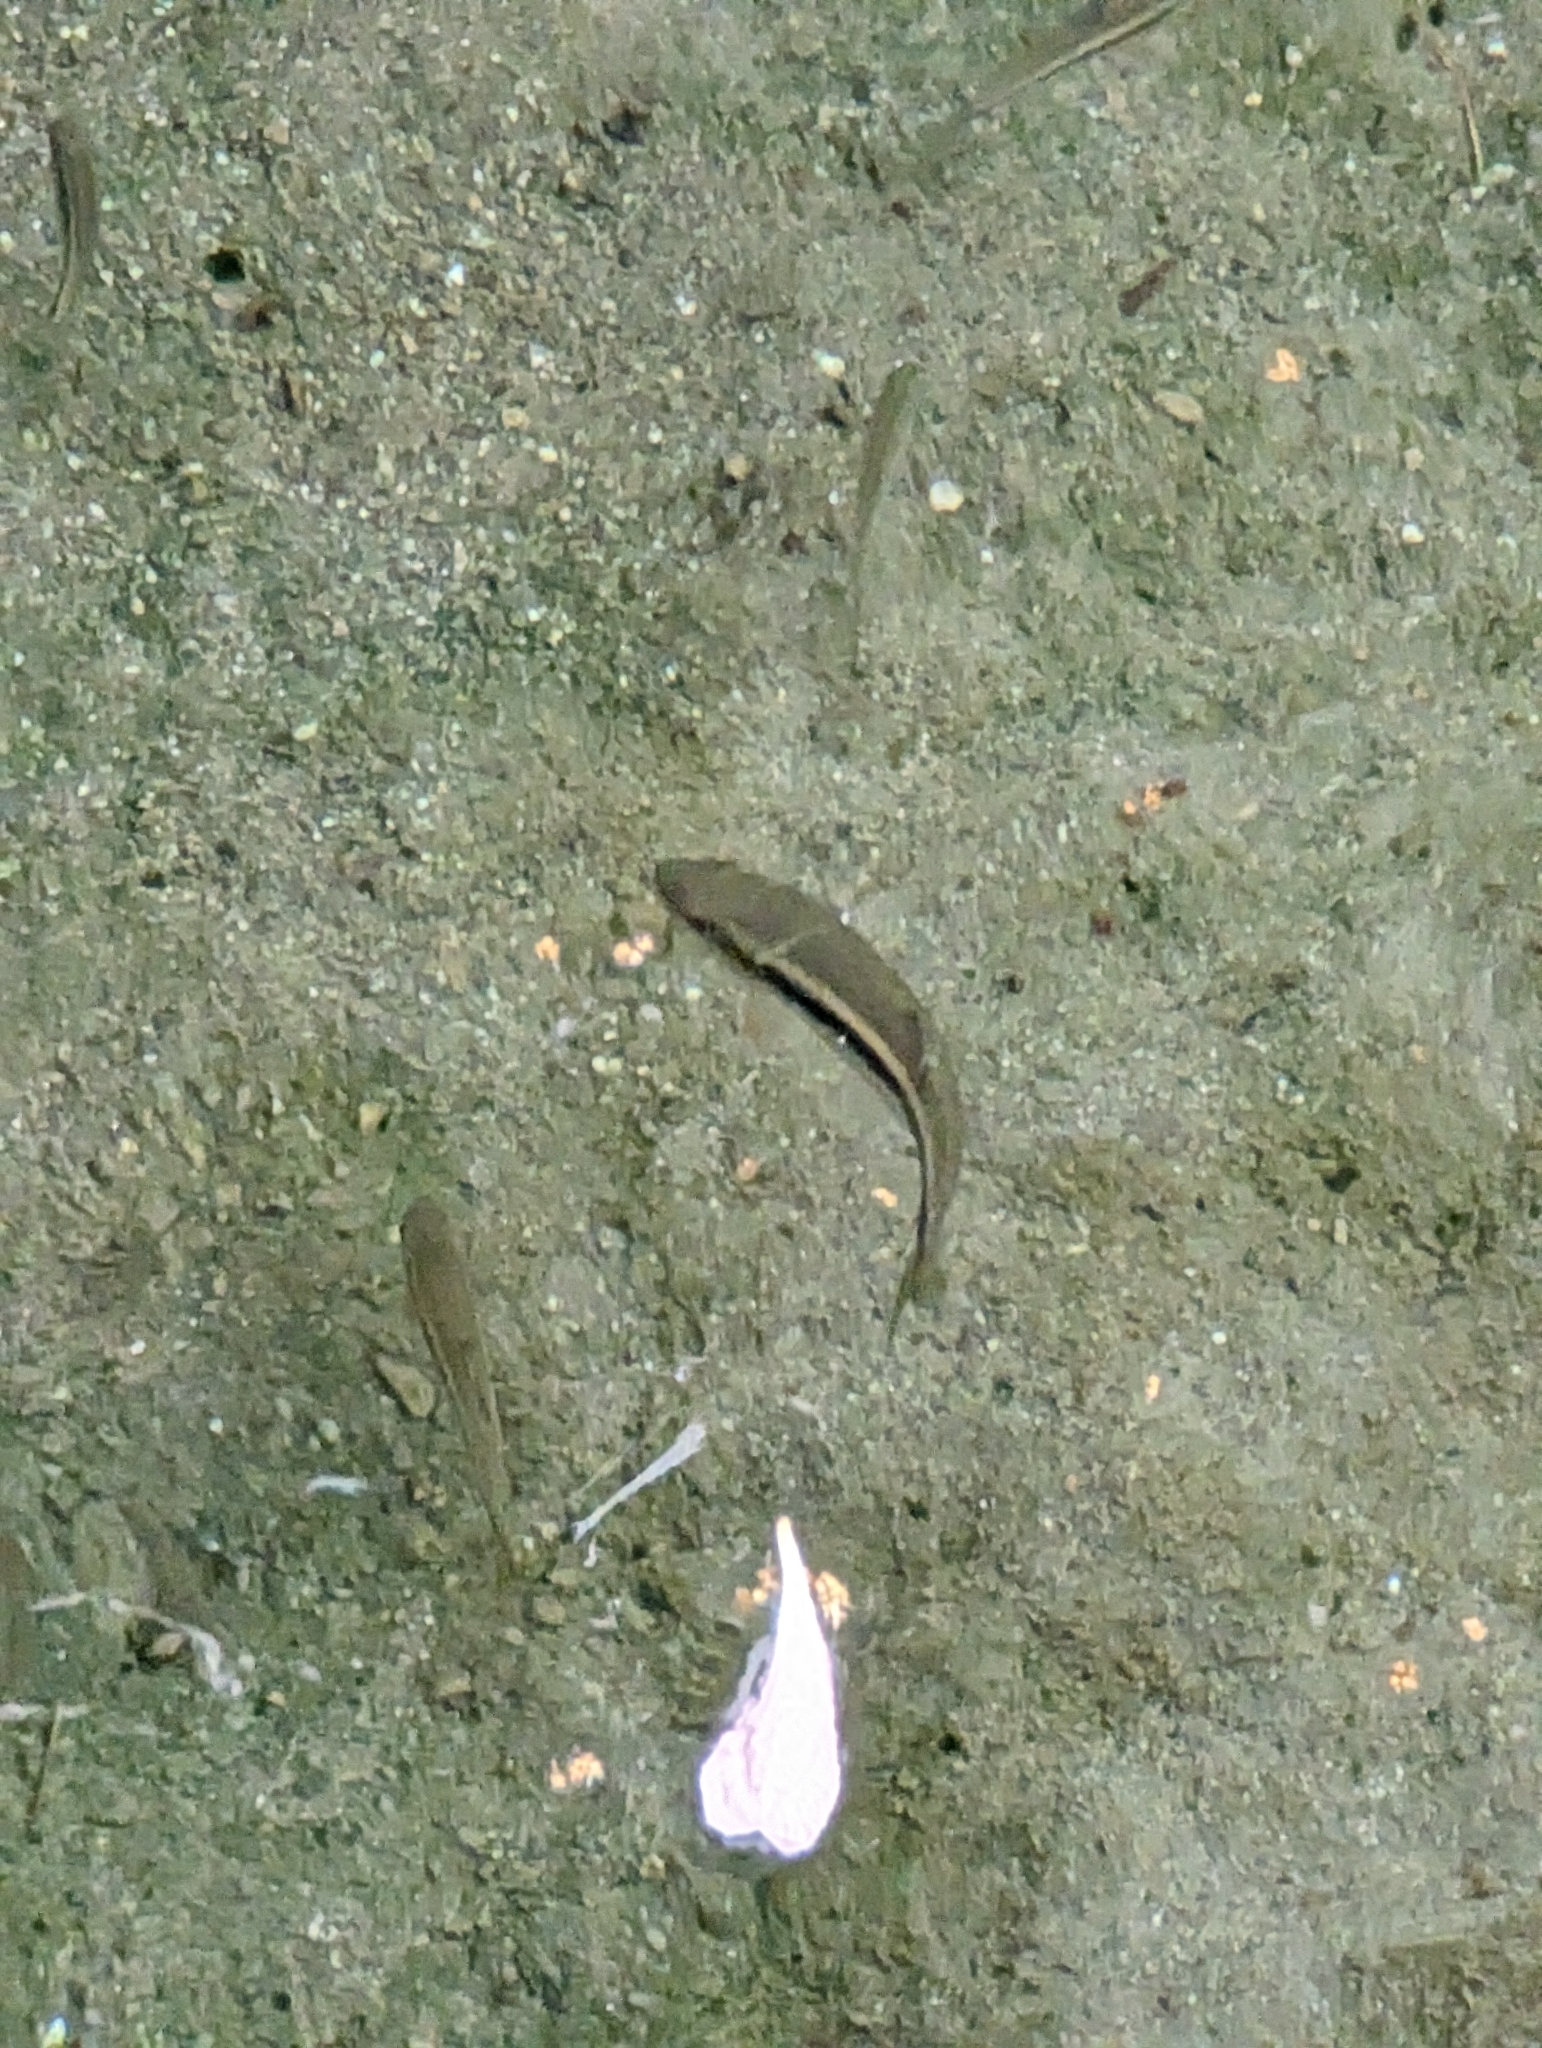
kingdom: Animalia
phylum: Chordata
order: Cypriniformes
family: Cyprinidae
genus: Candidia
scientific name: Candidia barbata
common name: Lake candidus dace
